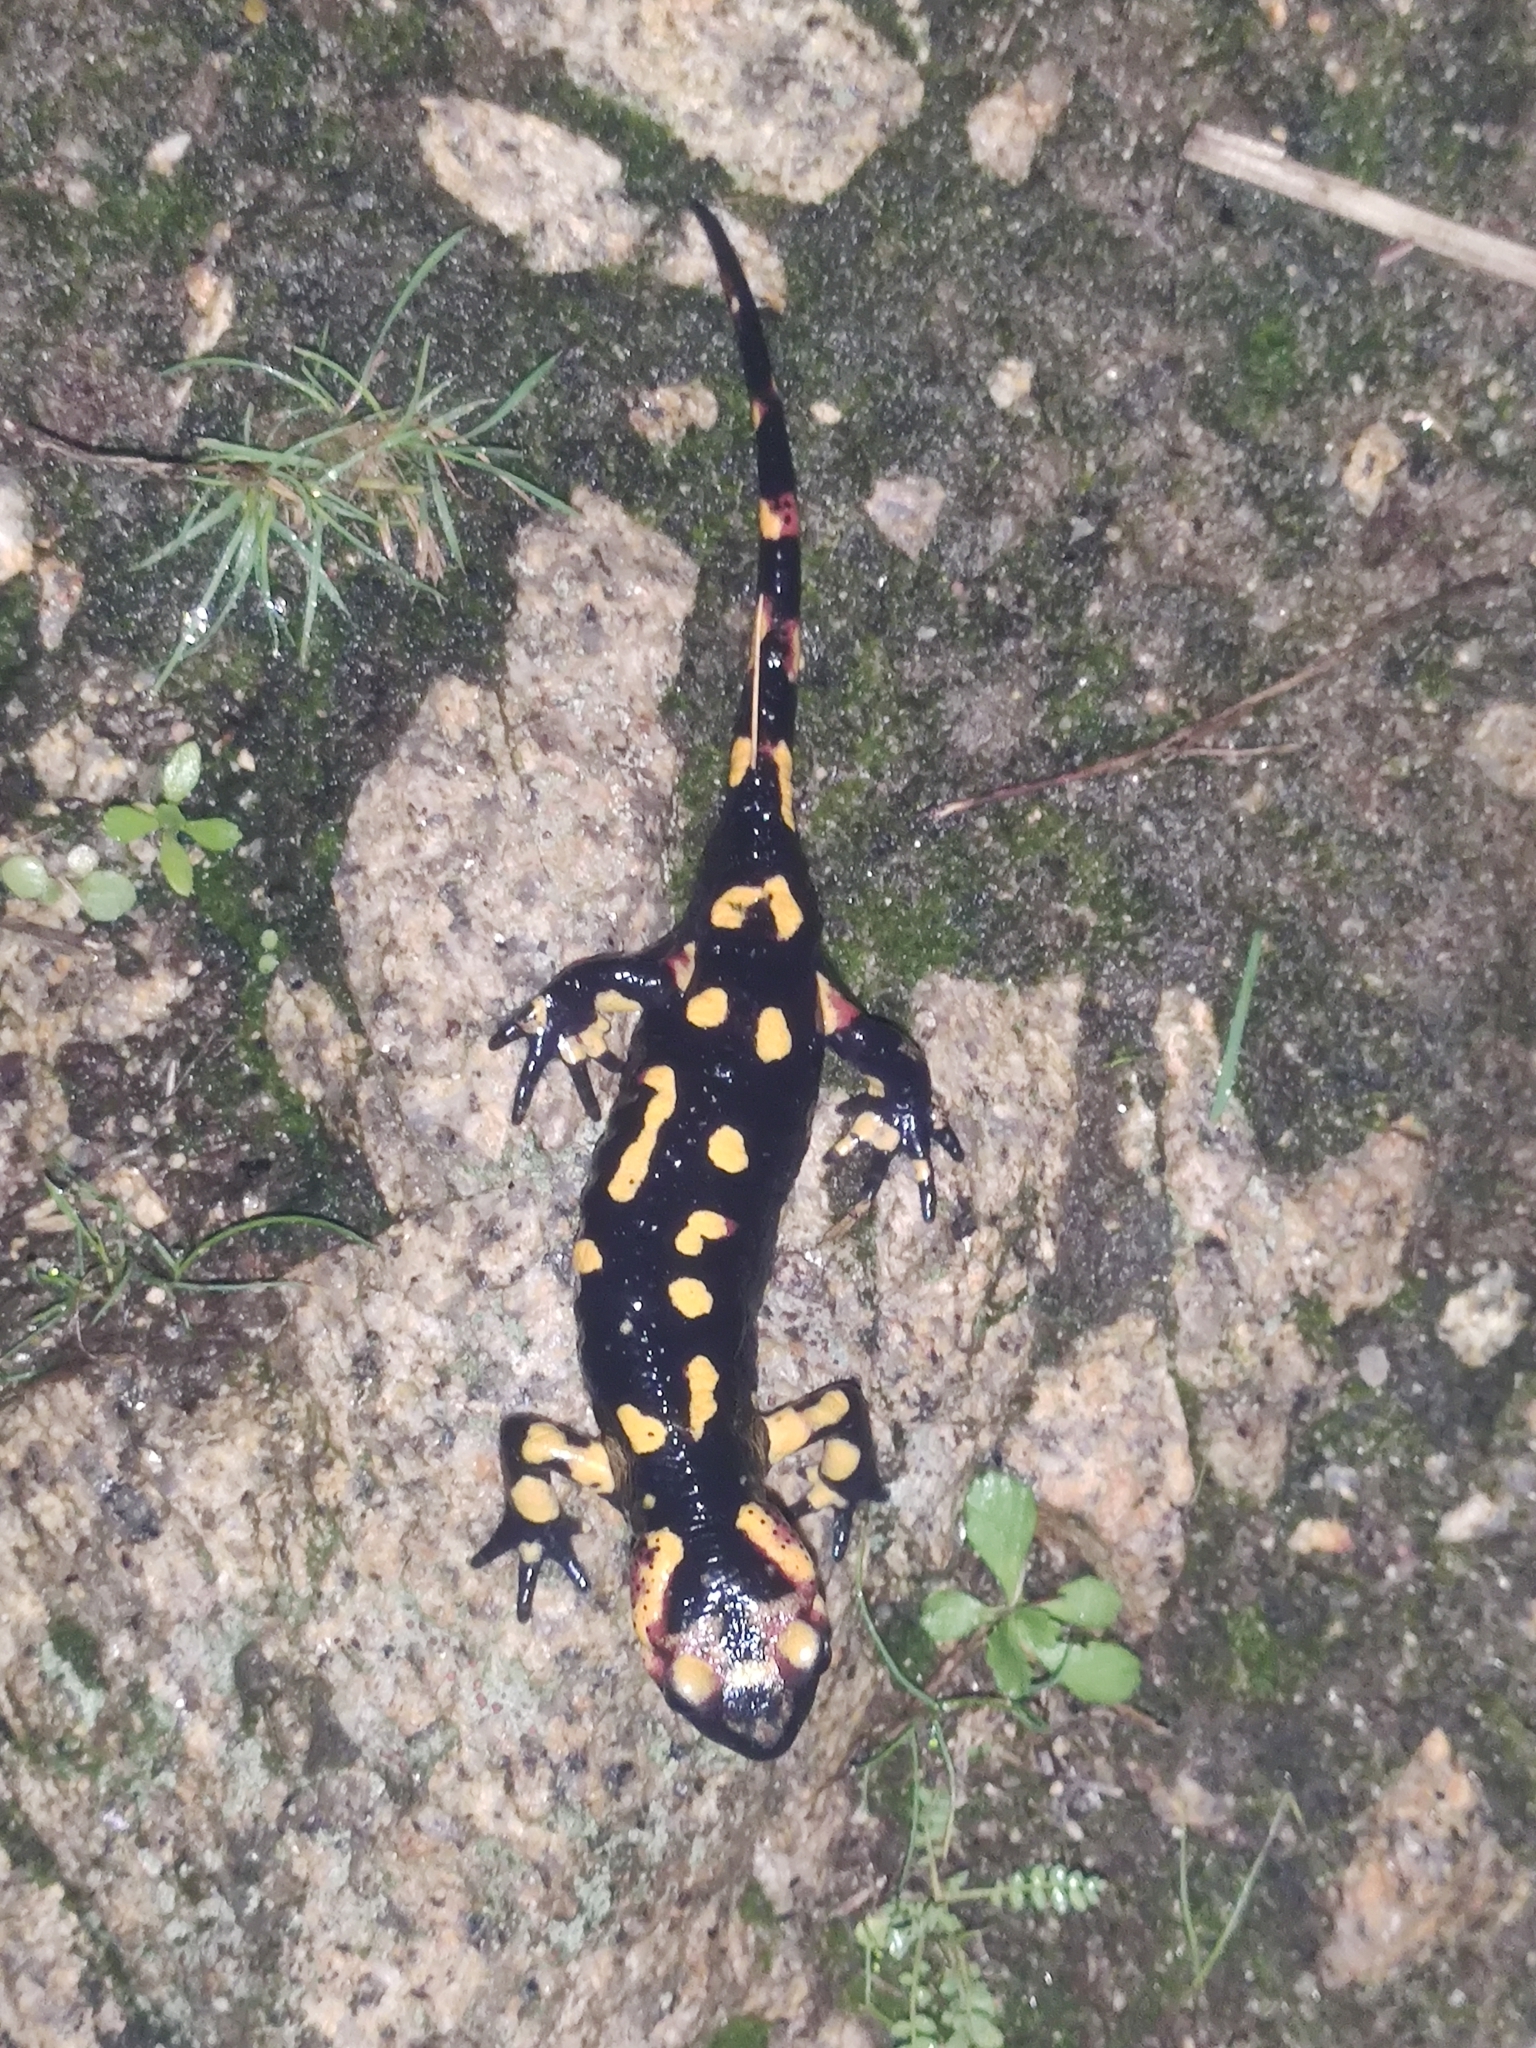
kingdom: Animalia
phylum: Chordata
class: Amphibia
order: Caudata
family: Salamandridae
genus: Salamandra
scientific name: Salamandra salamandra
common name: Fire salamander
